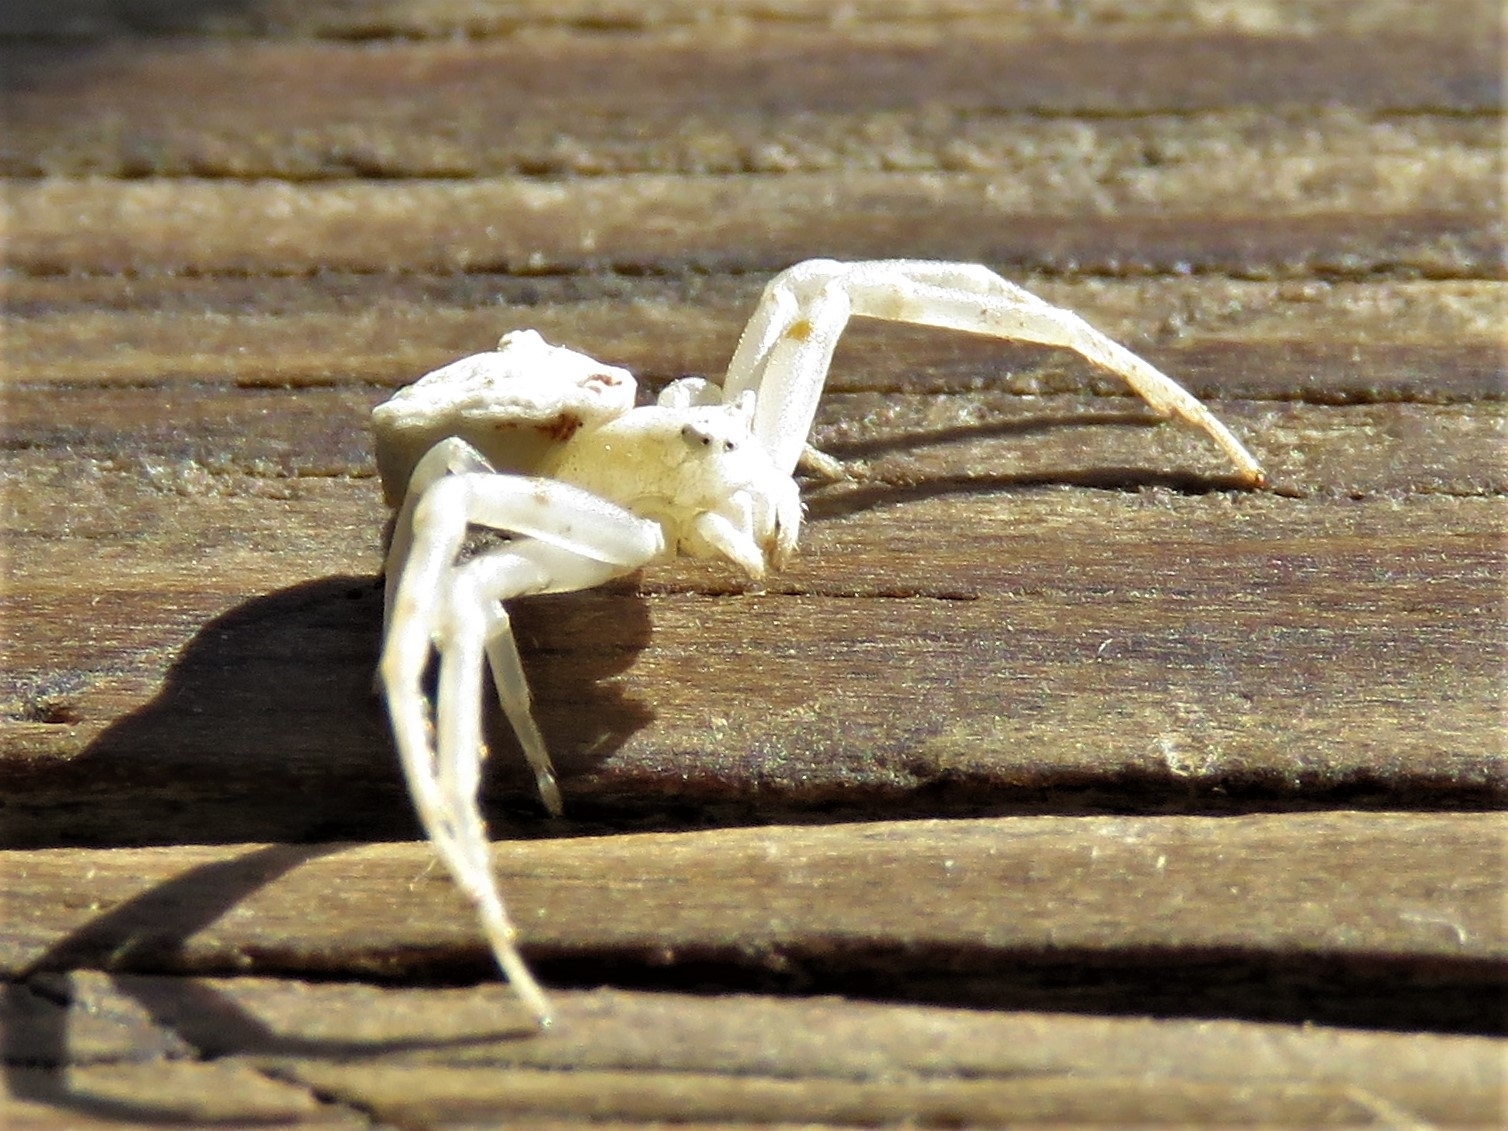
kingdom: Animalia
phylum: Arthropoda
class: Arachnida
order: Araneae
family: Thomisidae
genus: Thomisus
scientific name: Thomisus onustus
